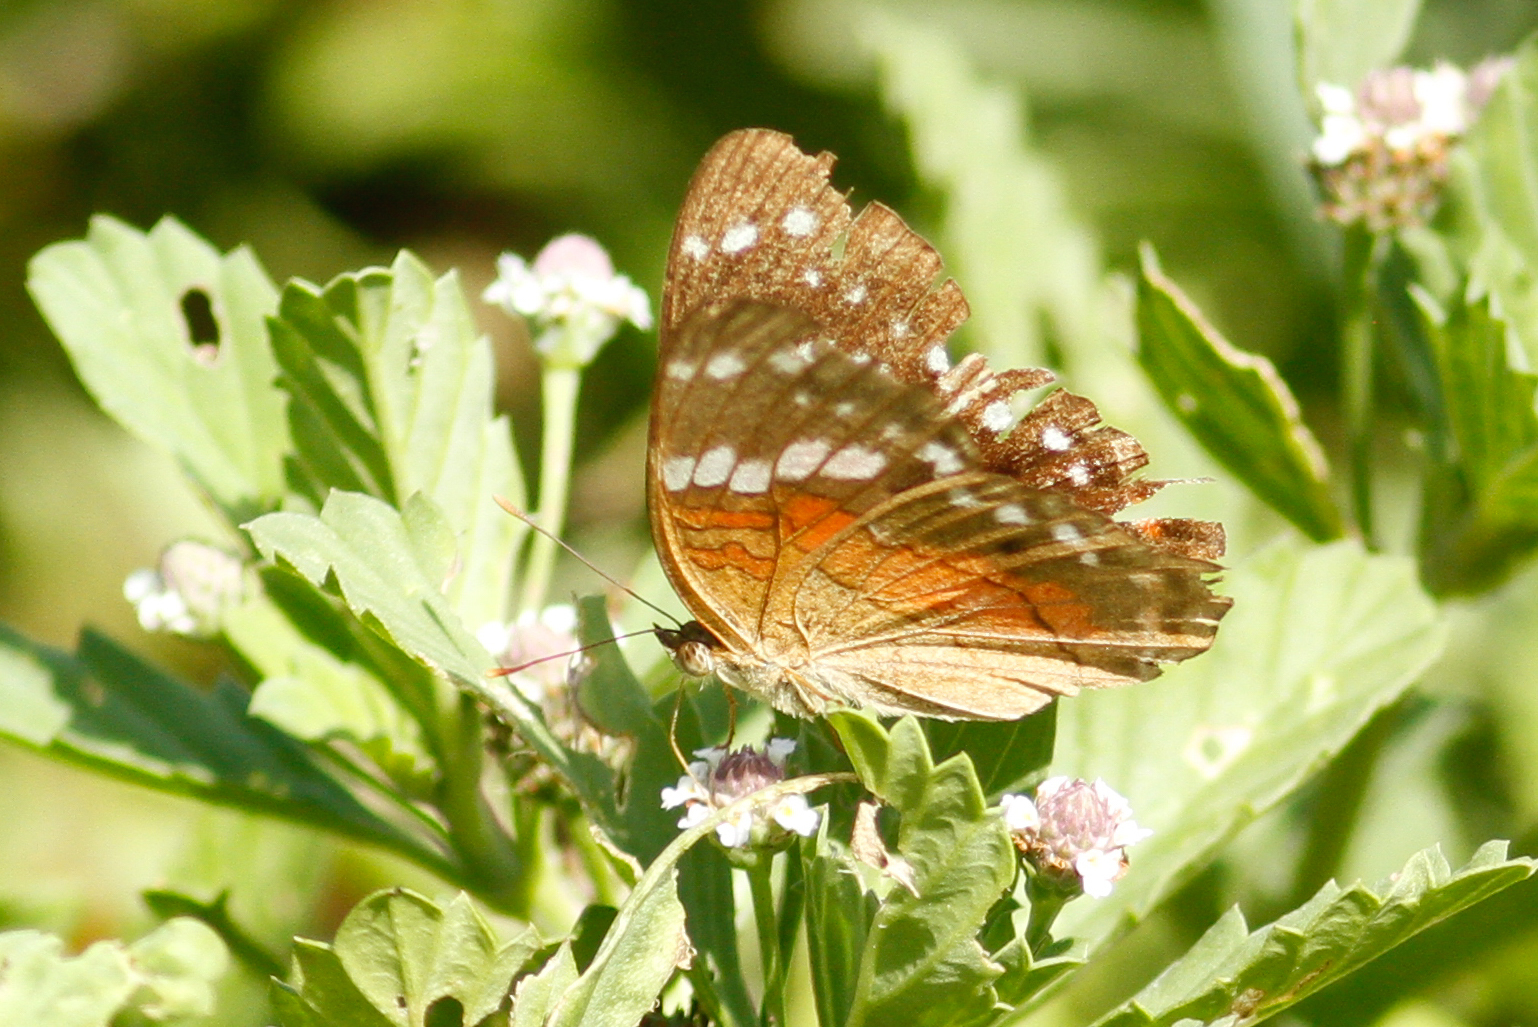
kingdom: Animalia
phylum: Arthropoda
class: Insecta
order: Lepidoptera
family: Nymphalidae
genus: Anartia
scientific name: Anartia amathea
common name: Red peacock
